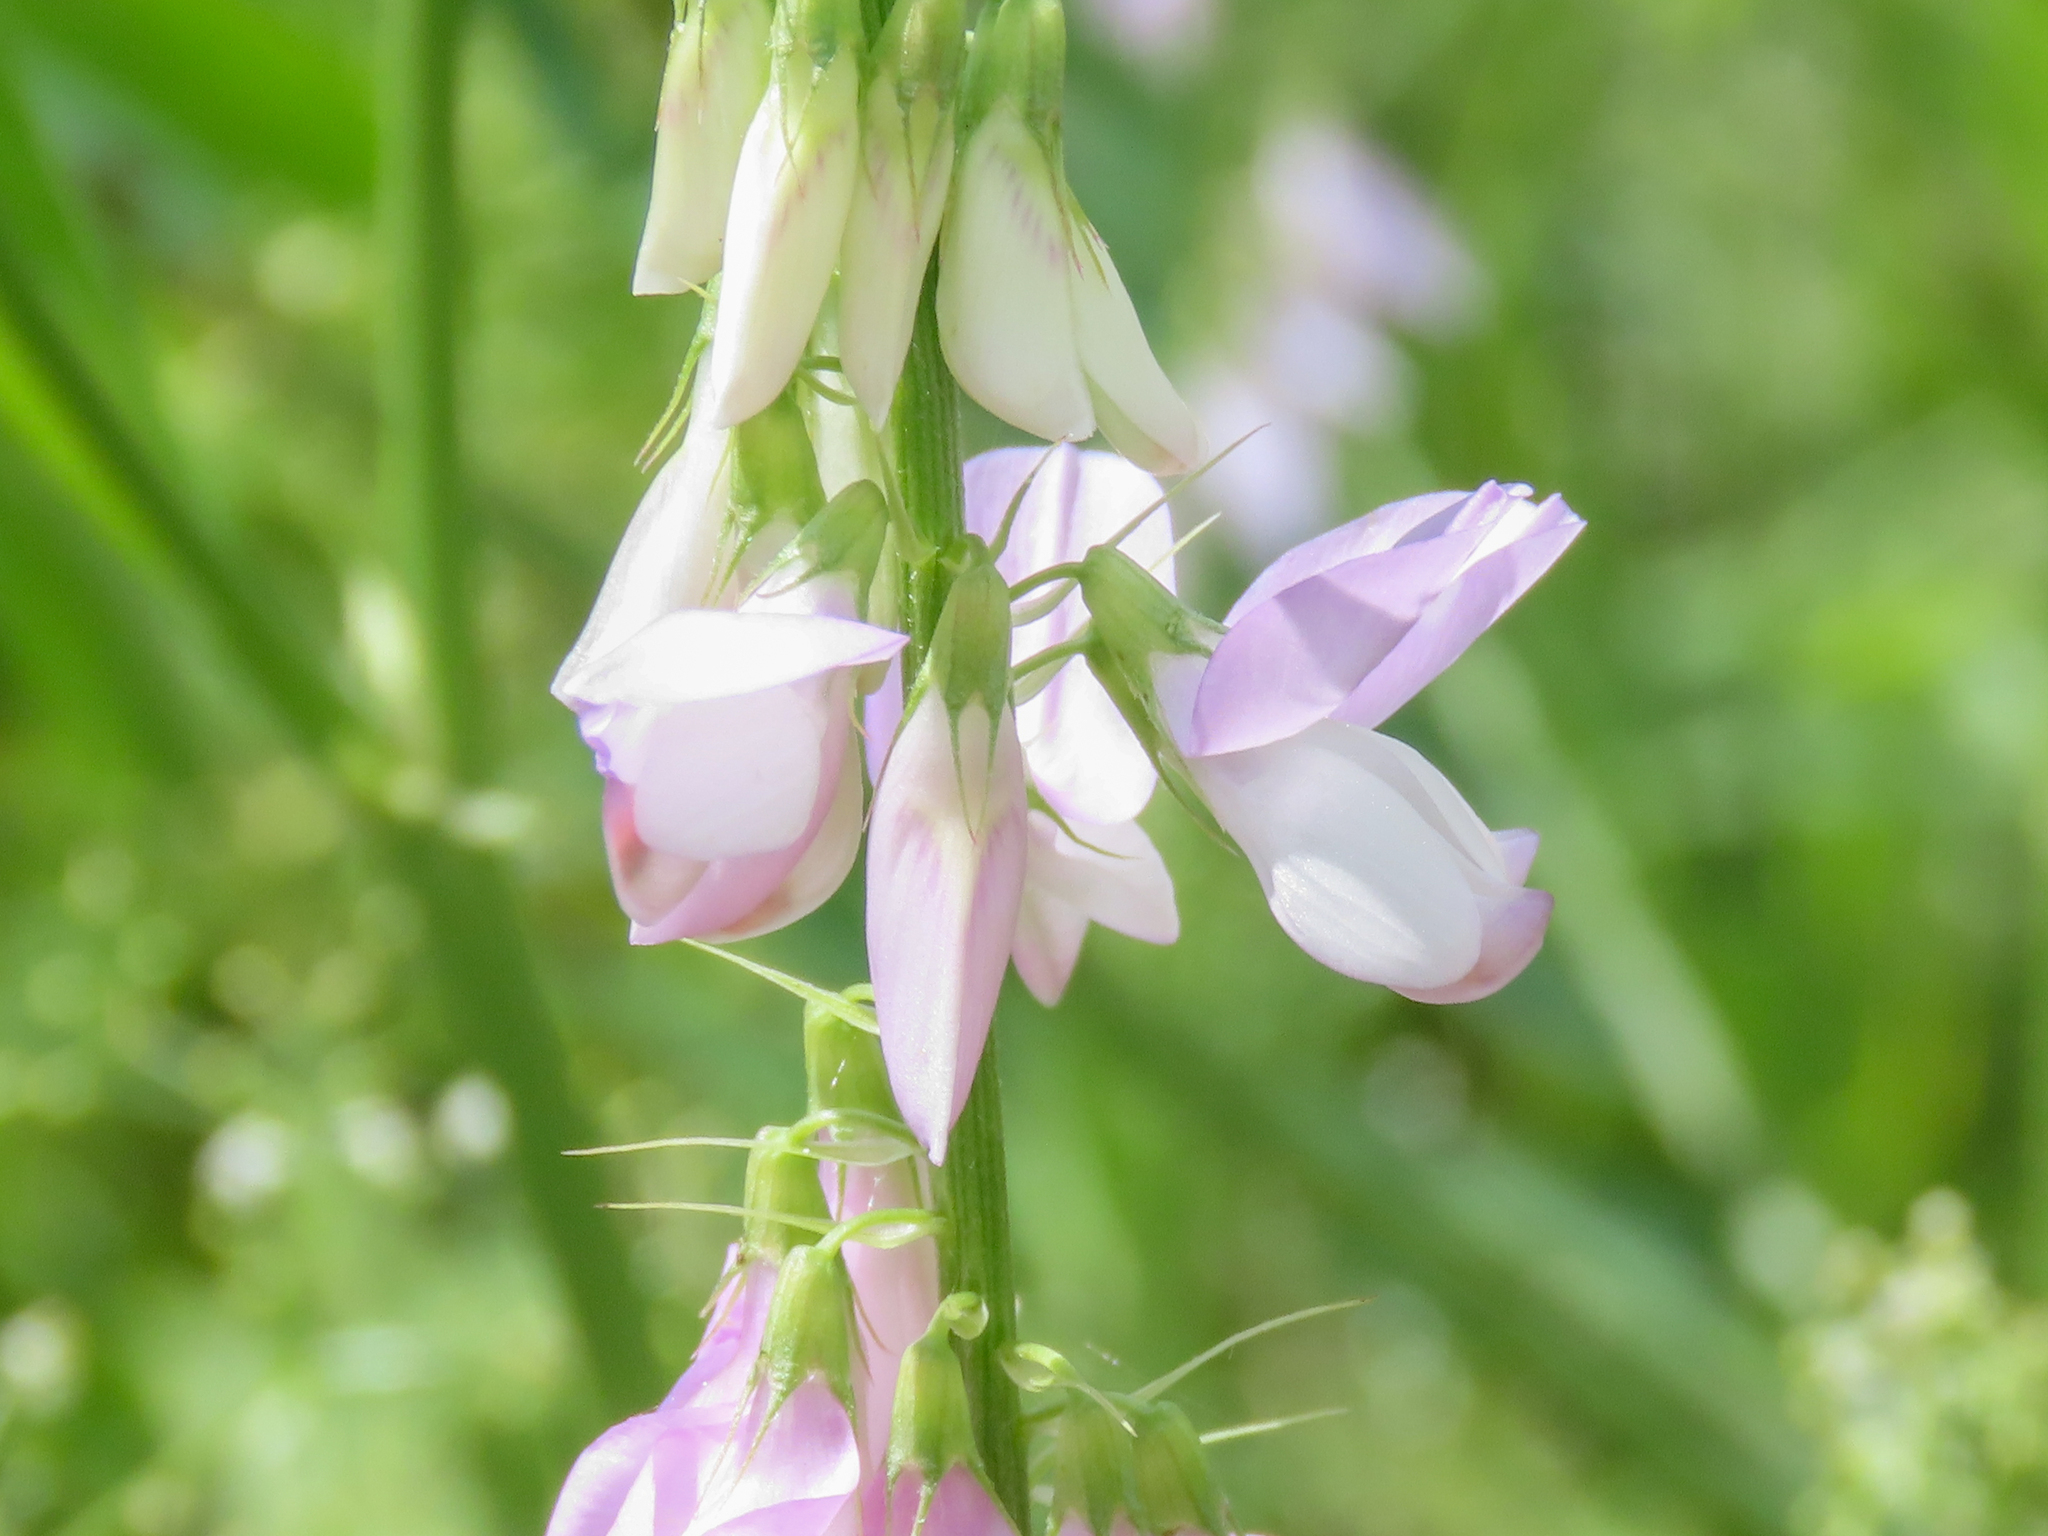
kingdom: Plantae
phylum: Tracheophyta
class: Magnoliopsida
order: Fabales
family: Fabaceae
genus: Galega
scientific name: Galega officinalis
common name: Goat's-rue
